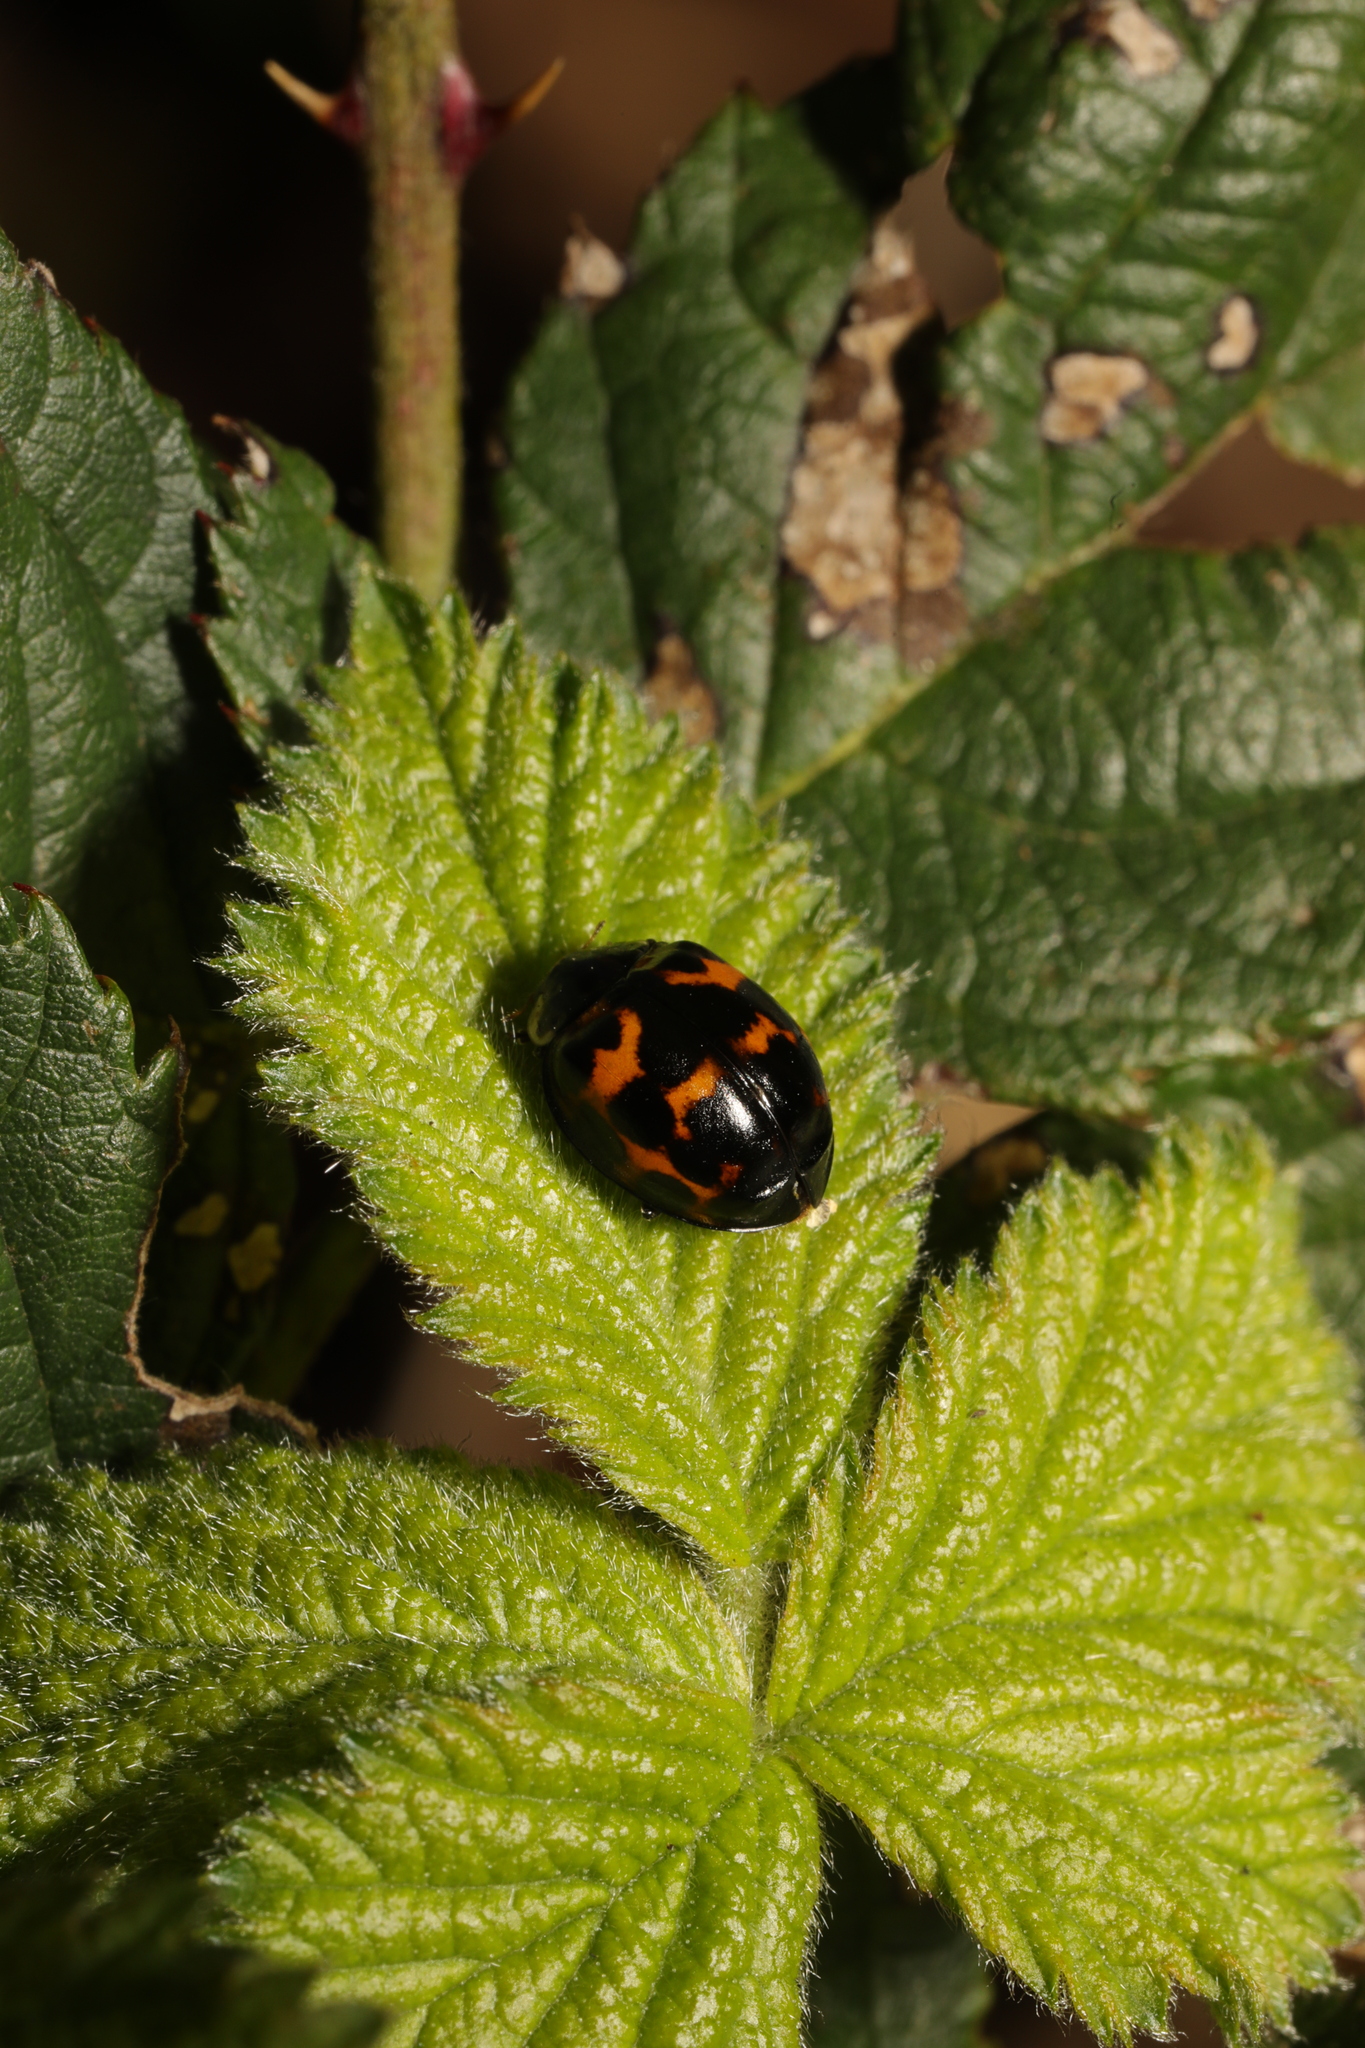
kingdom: Animalia
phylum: Arthropoda
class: Insecta
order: Coleoptera
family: Coccinellidae
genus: Harmonia
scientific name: Harmonia axyridis
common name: Harlequin ladybird
